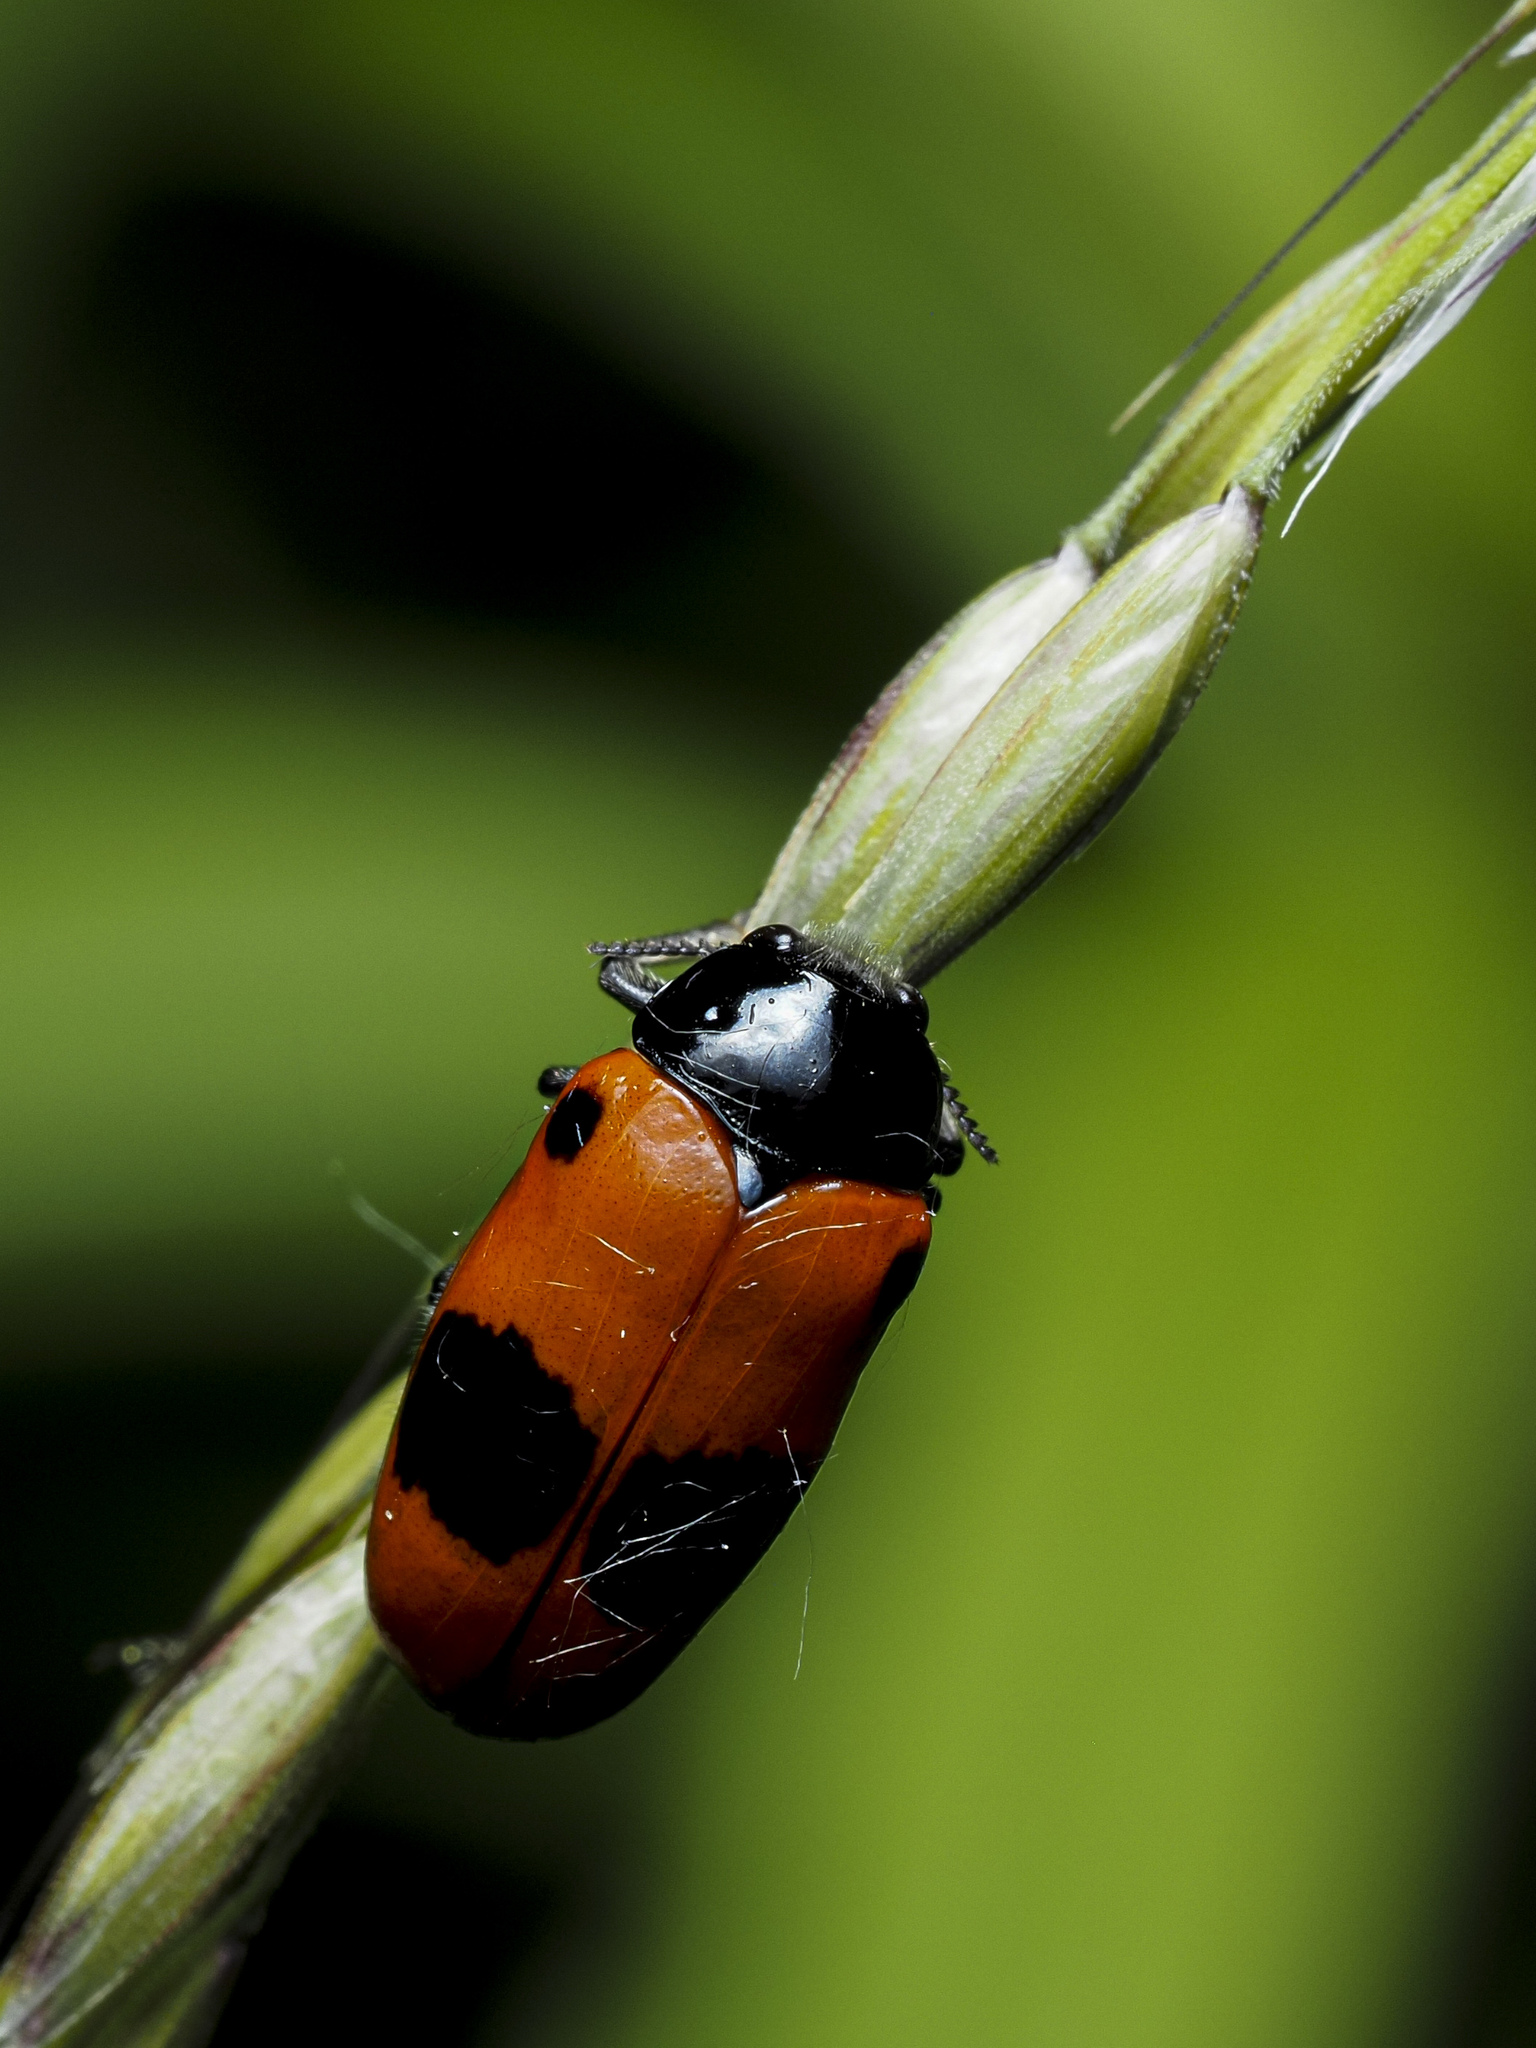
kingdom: Animalia
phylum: Arthropoda
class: Insecta
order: Coleoptera
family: Chrysomelidae
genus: Clytra
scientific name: Clytra laeviuscula
